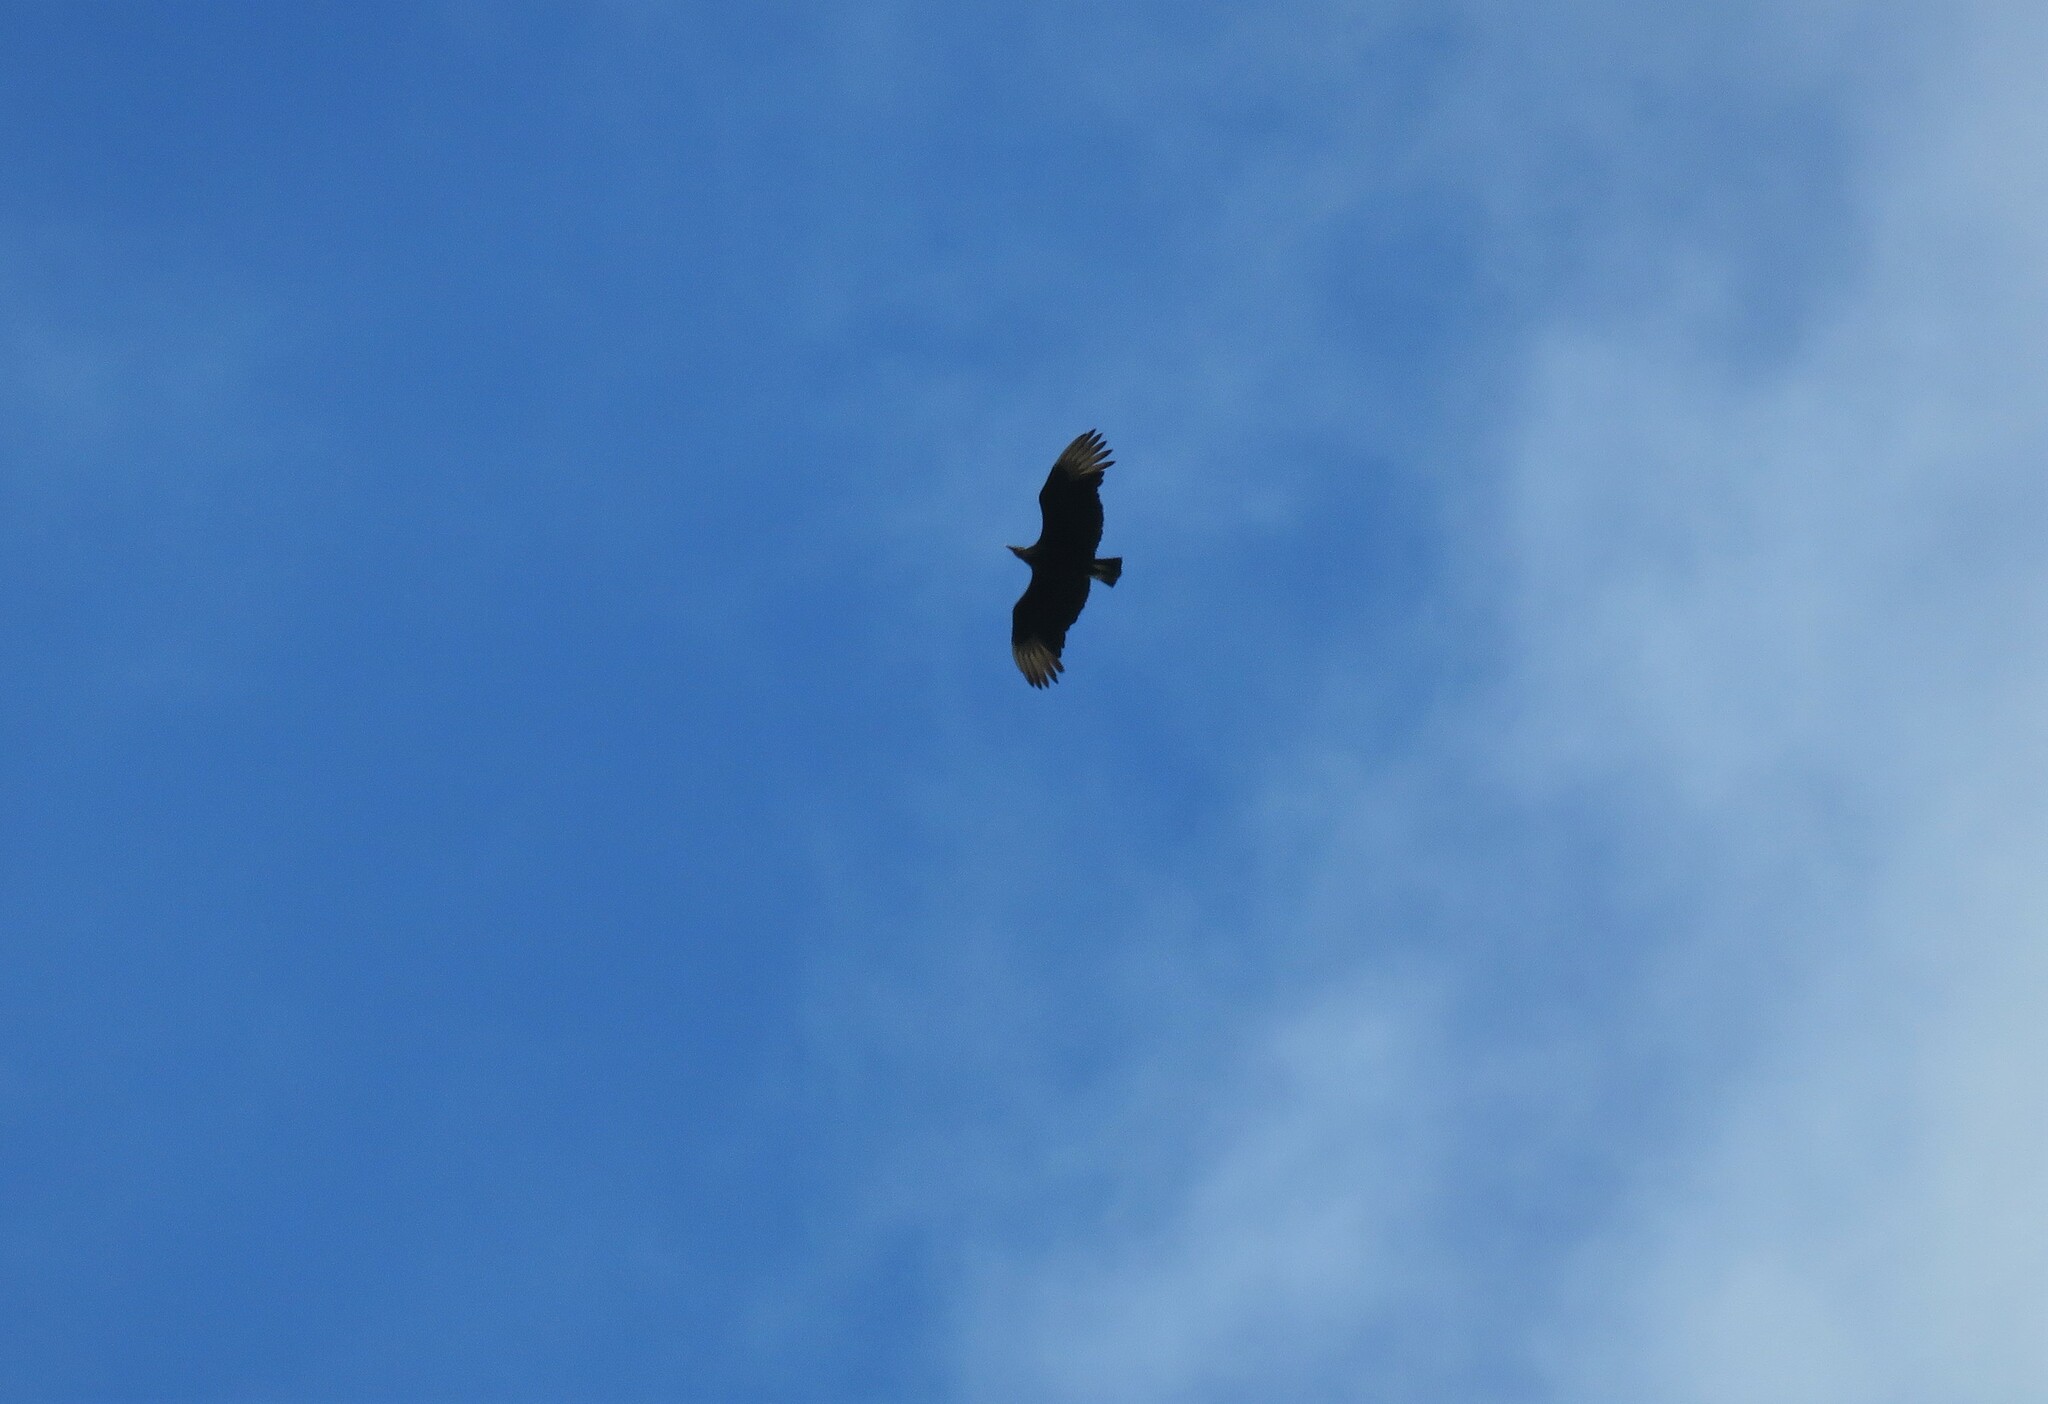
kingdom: Animalia
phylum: Chordata
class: Aves
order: Accipitriformes
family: Cathartidae
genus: Coragyps
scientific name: Coragyps atratus
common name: Black vulture
